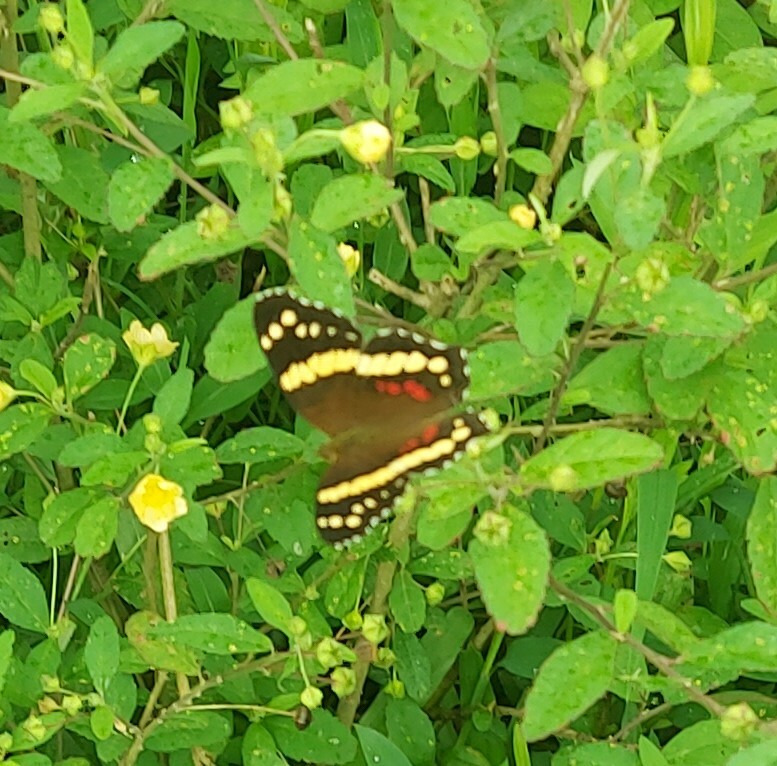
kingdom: Animalia
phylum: Arthropoda
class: Insecta
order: Lepidoptera
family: Nymphalidae
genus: Anartia
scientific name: Anartia fatima
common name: Banded peacock
